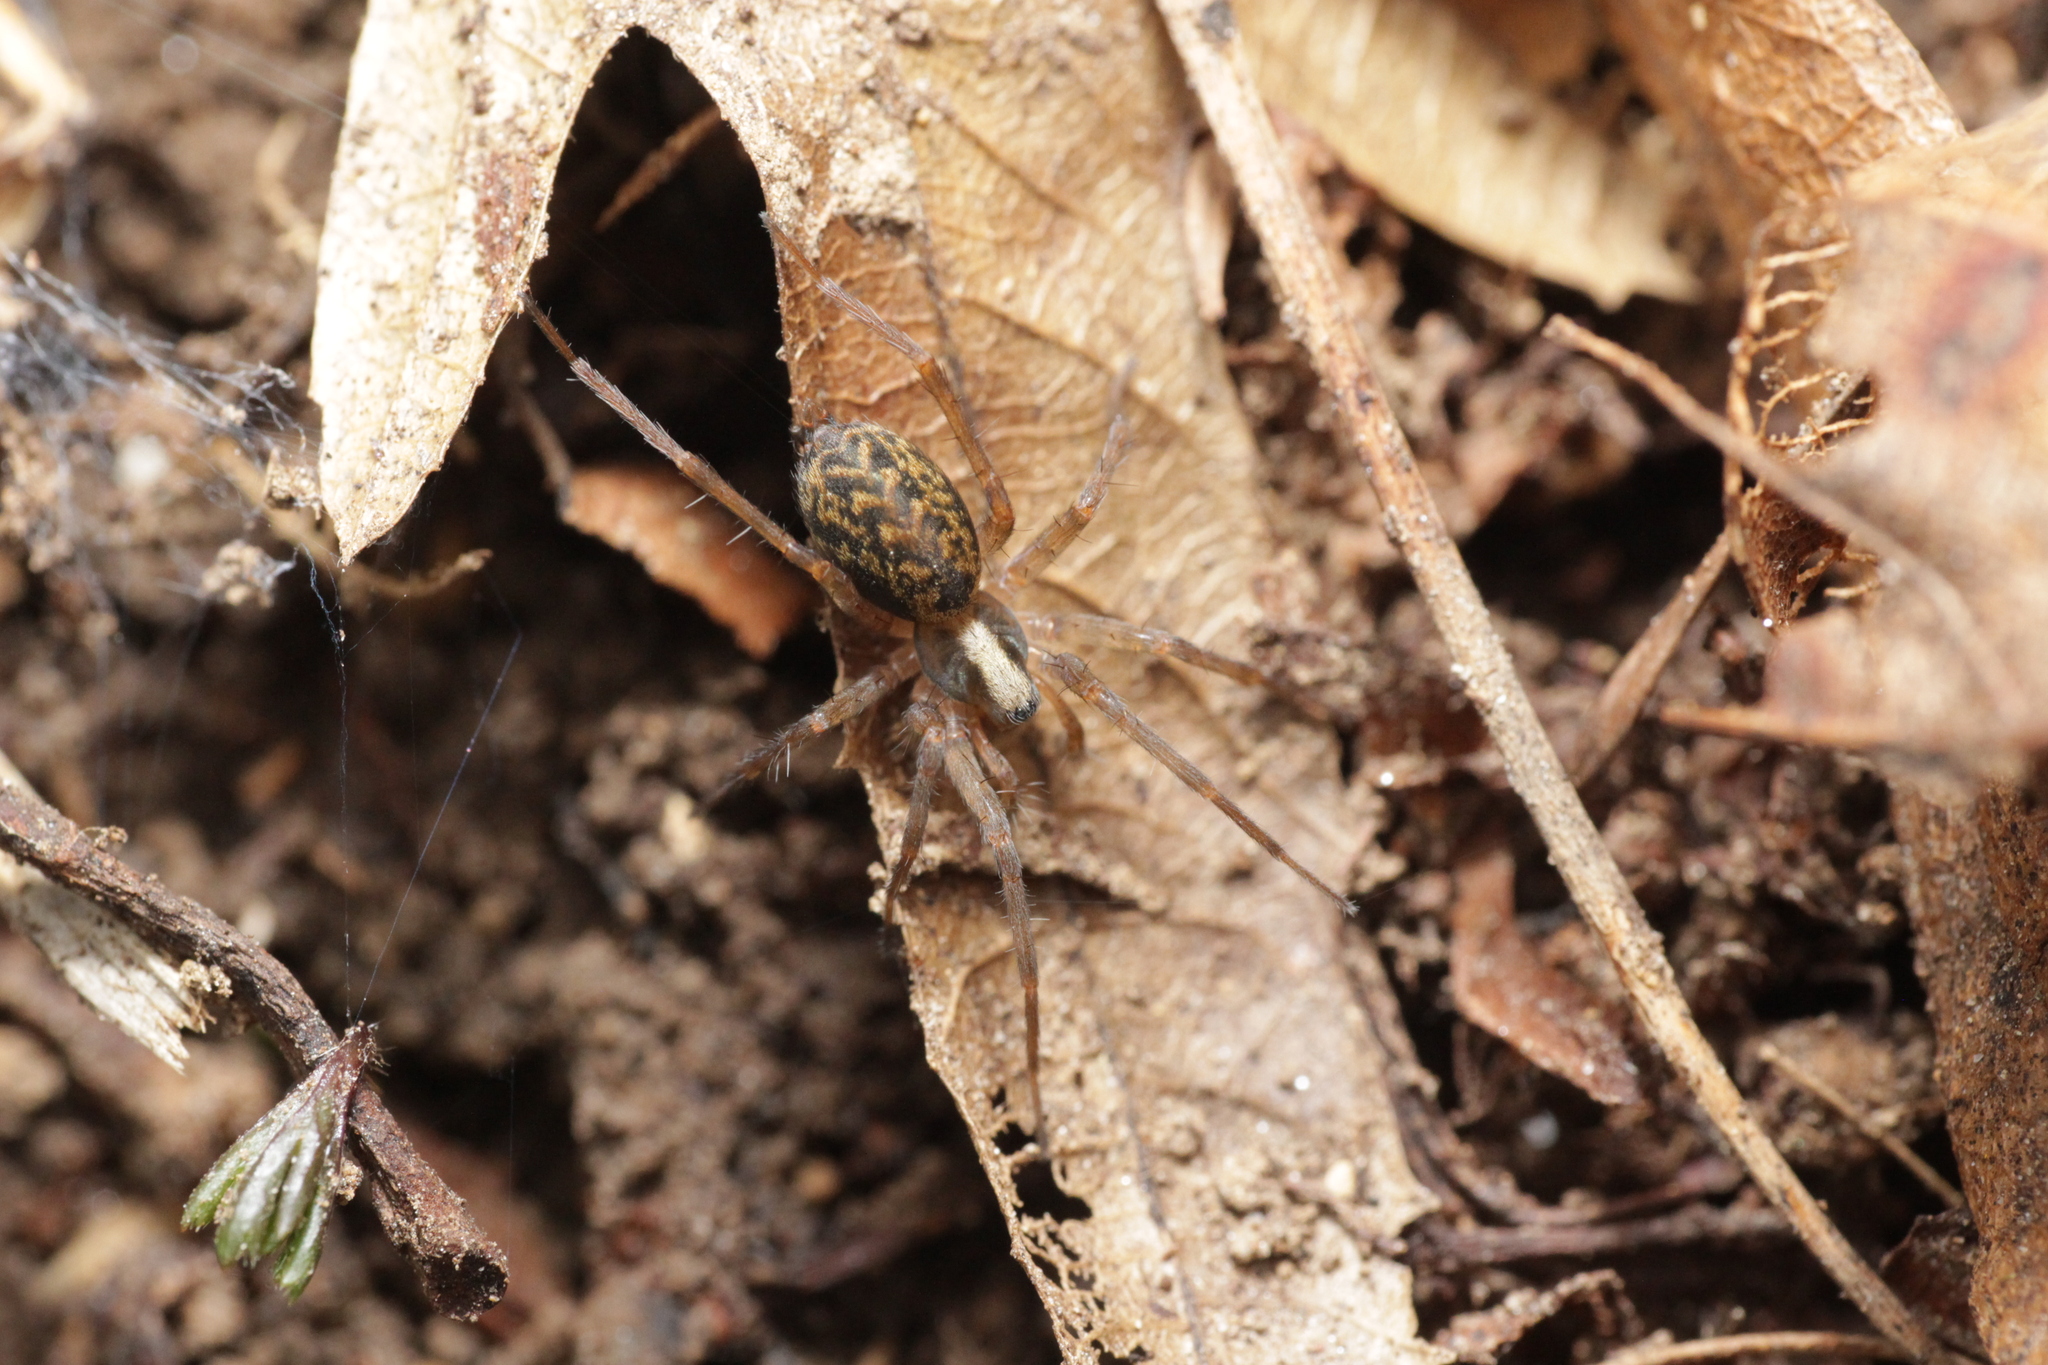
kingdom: Animalia
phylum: Arthropoda
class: Arachnida
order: Araneae
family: Agelenidae
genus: Histopona
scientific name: Histopona torpida
